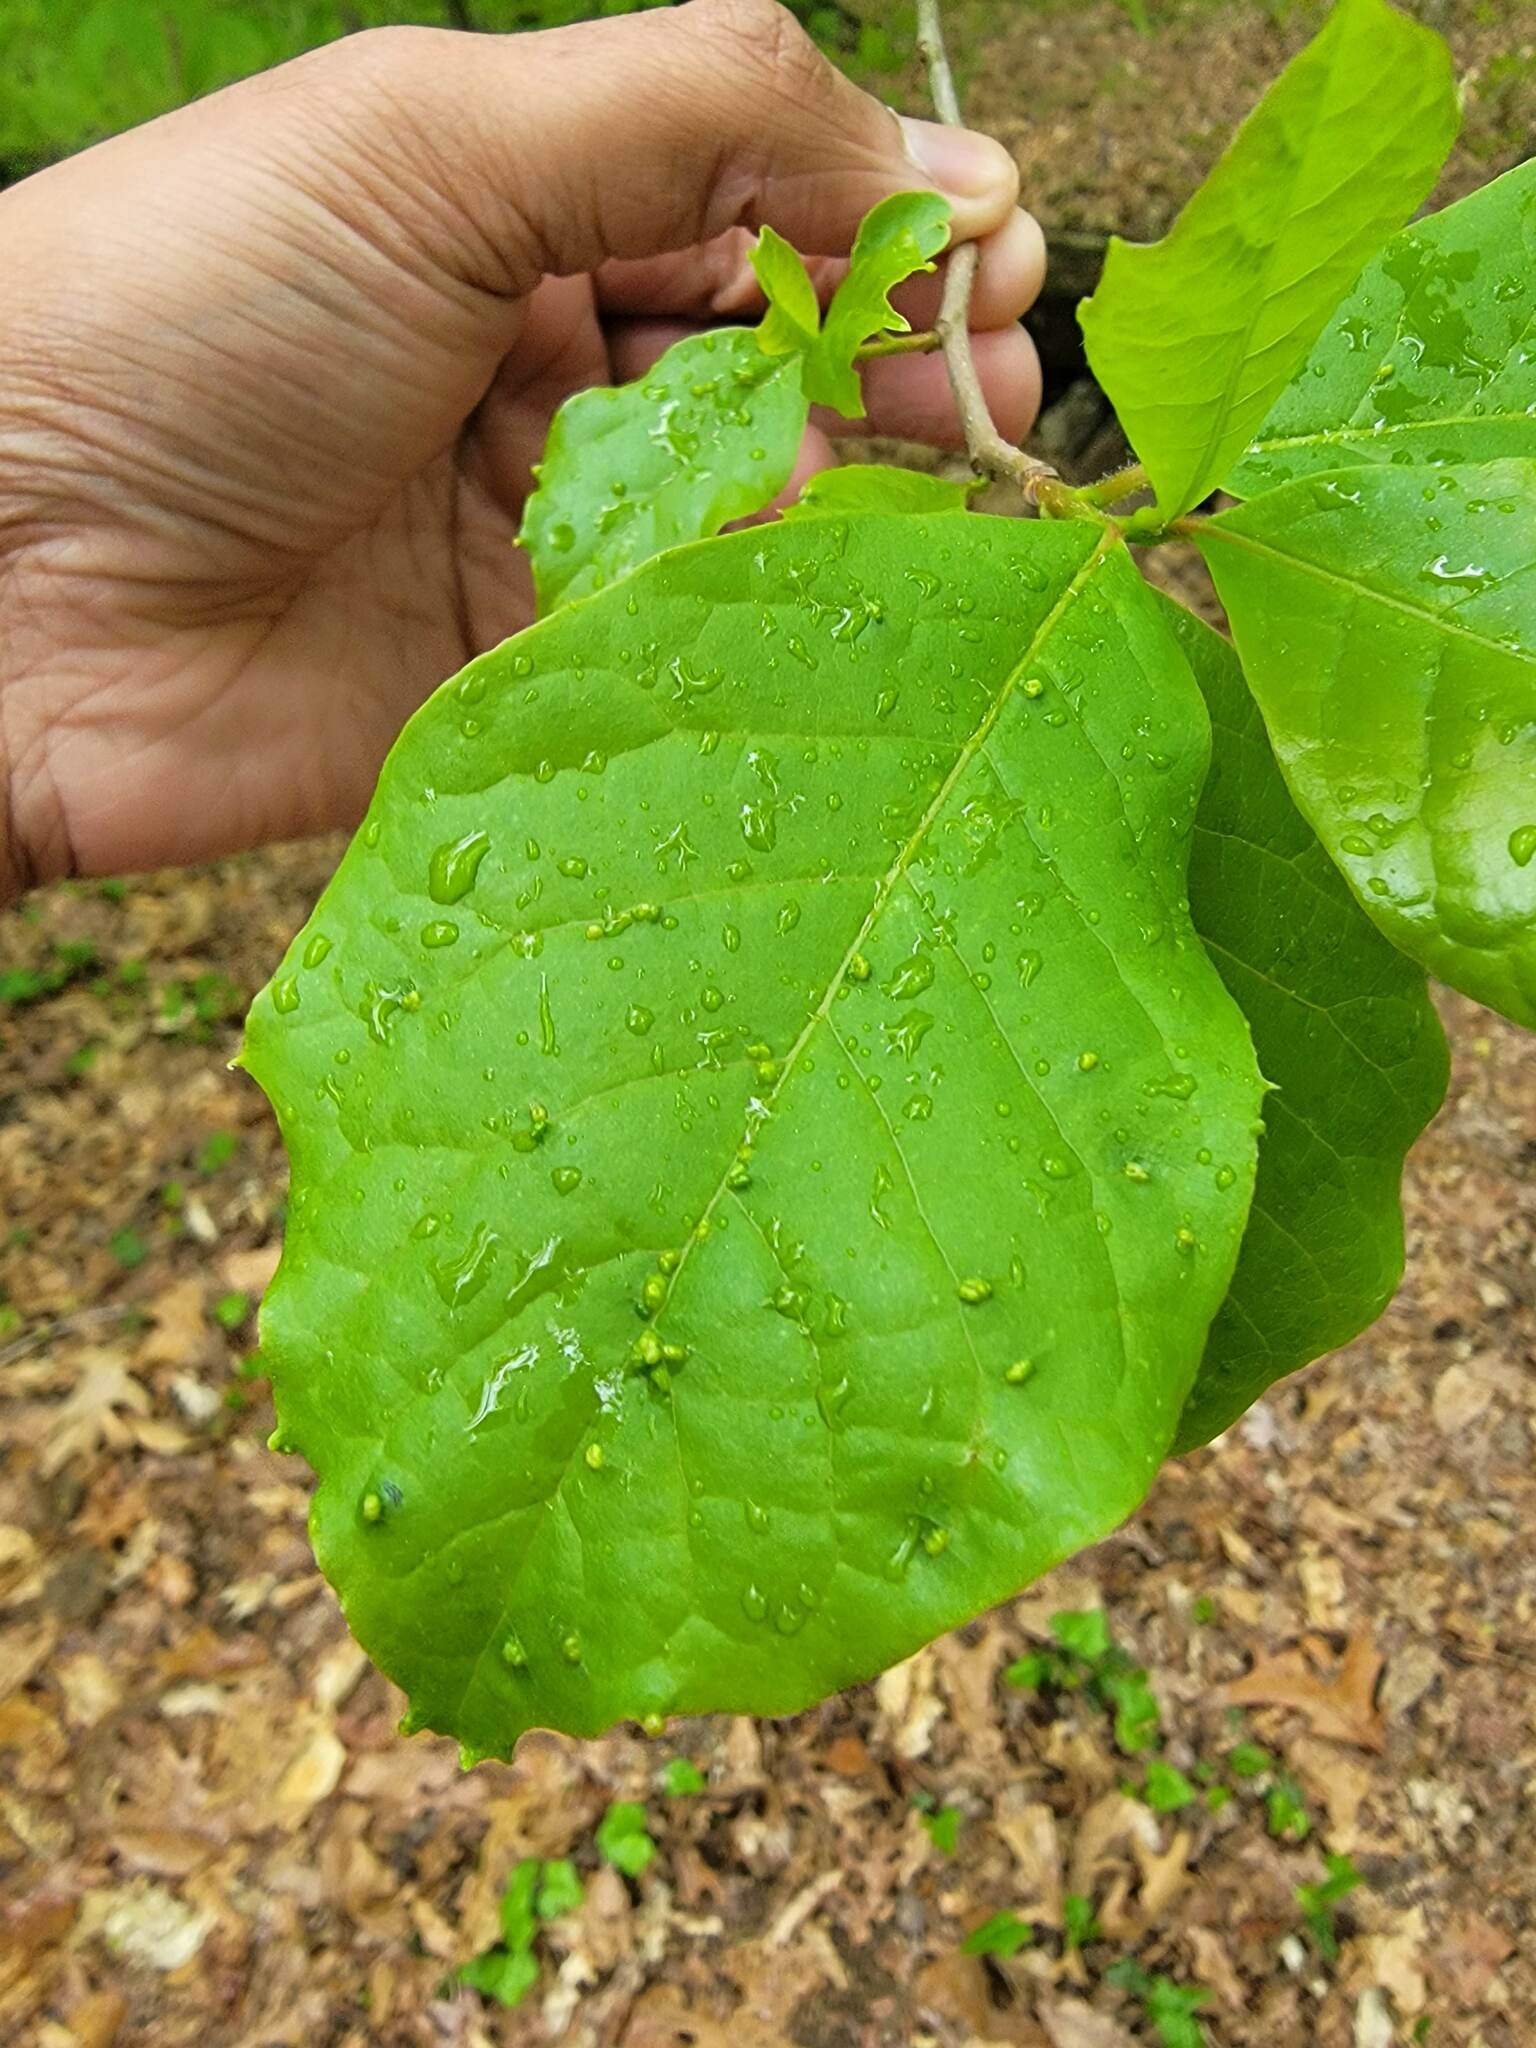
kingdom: Animalia
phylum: Arthropoda
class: Arachnida
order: Trombidiformes
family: Eriophyidae
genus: Aceria
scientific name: Aceria
